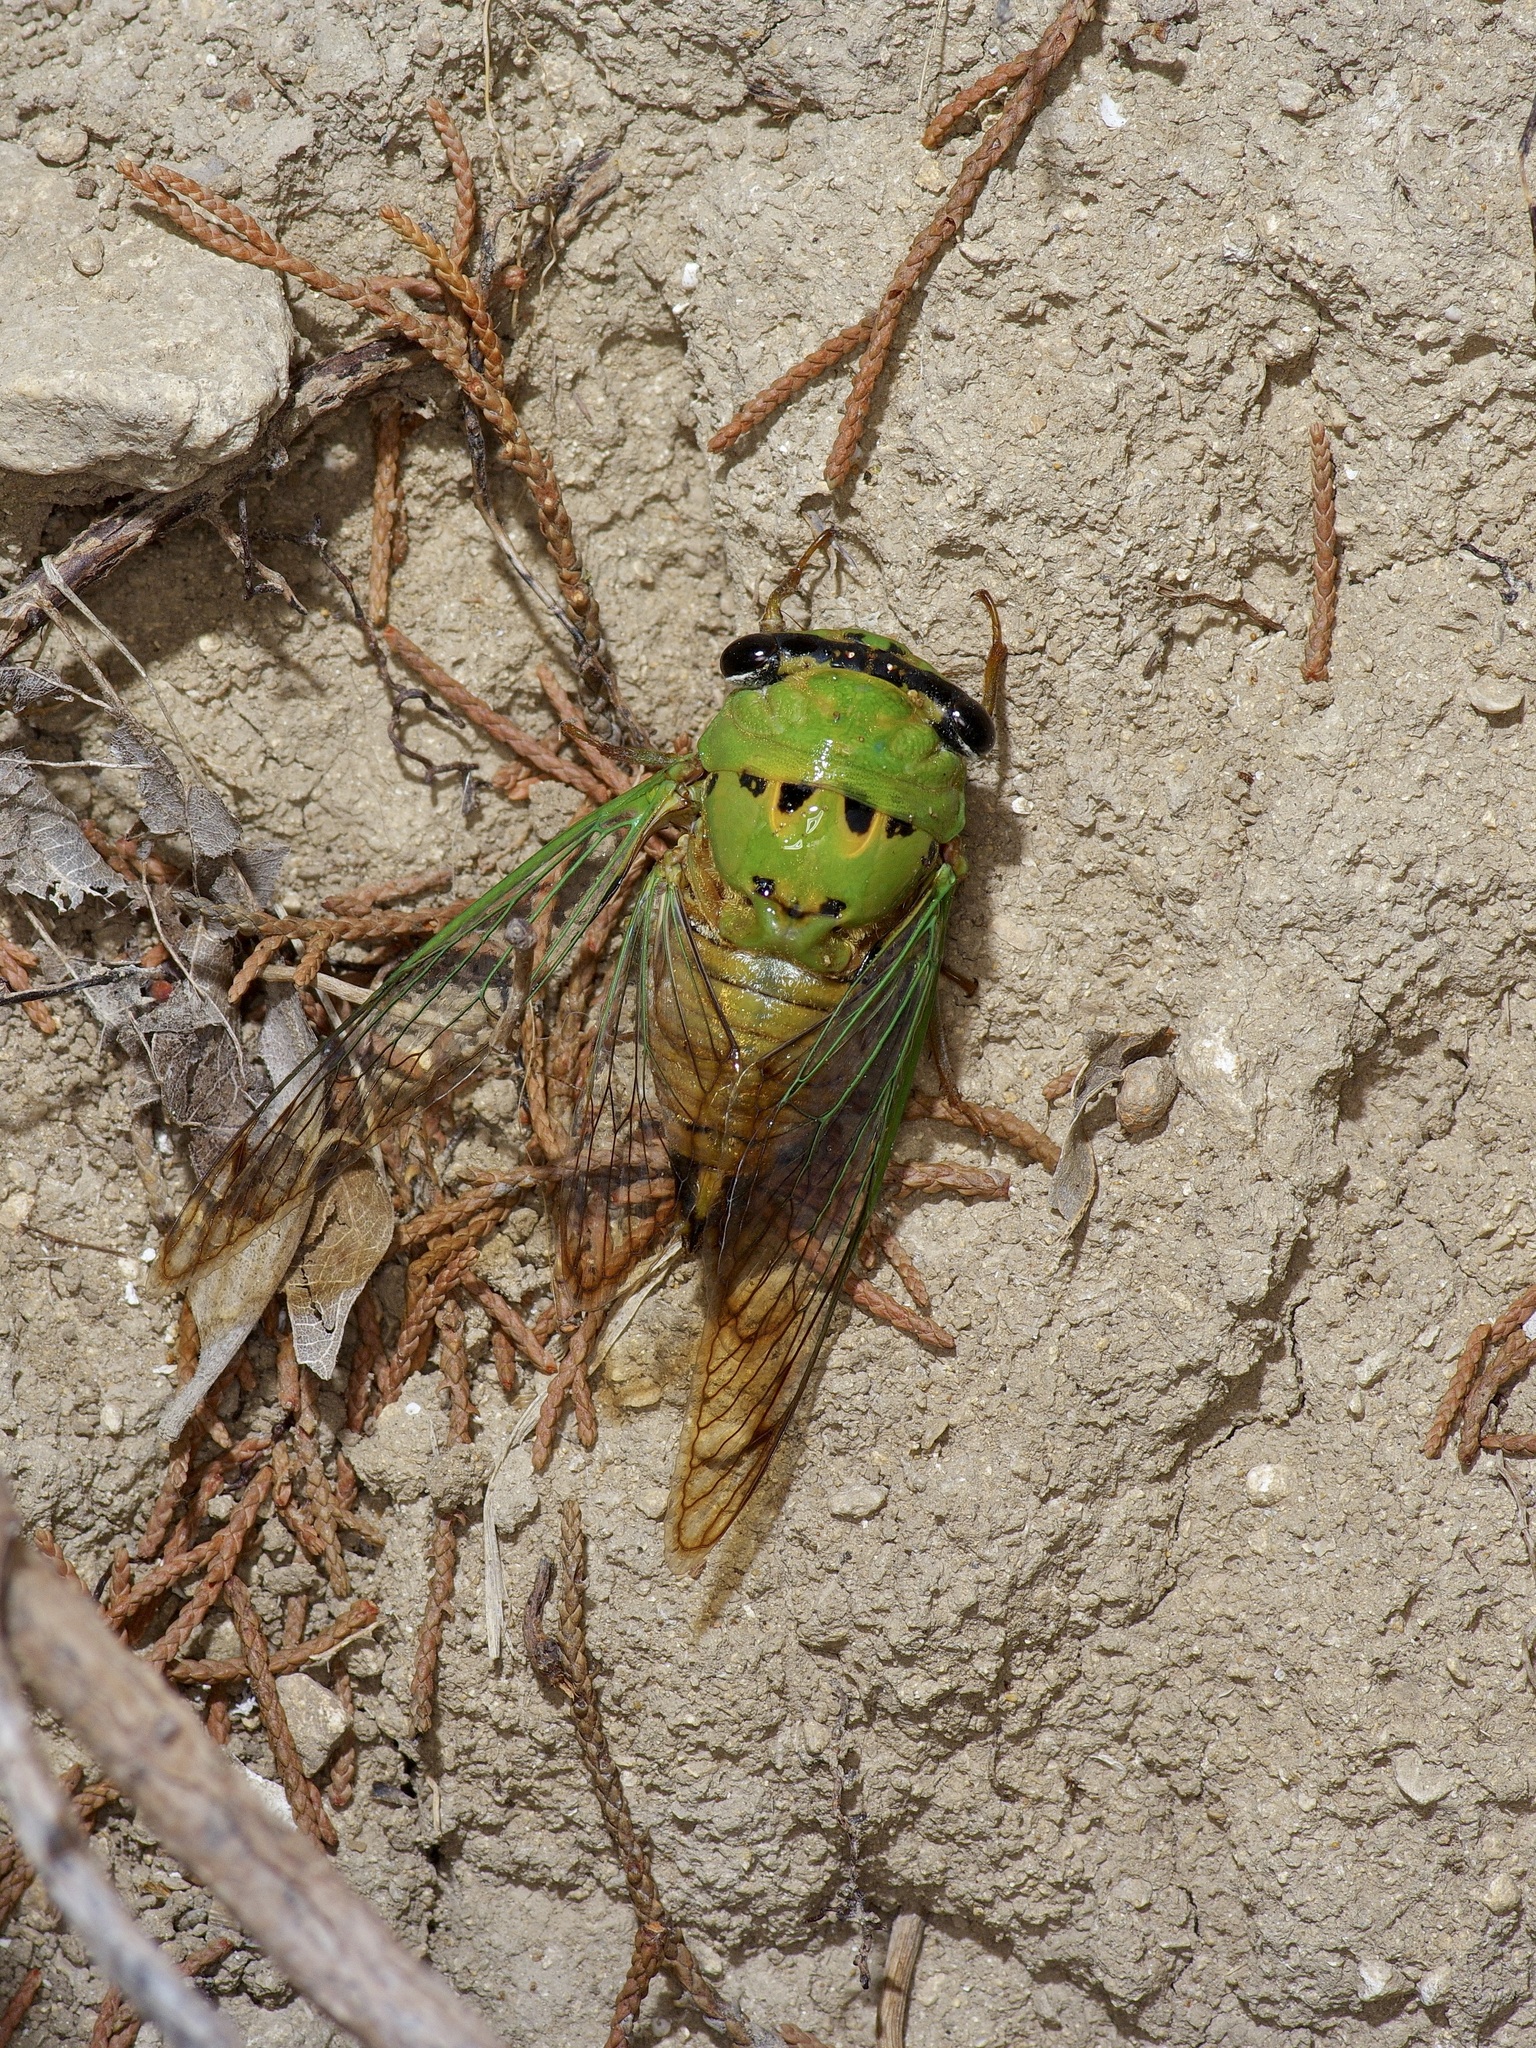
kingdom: Animalia
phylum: Arthropoda
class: Insecta
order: Hemiptera
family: Cicadidae
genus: Neotibicen
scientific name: Neotibicen superbus
